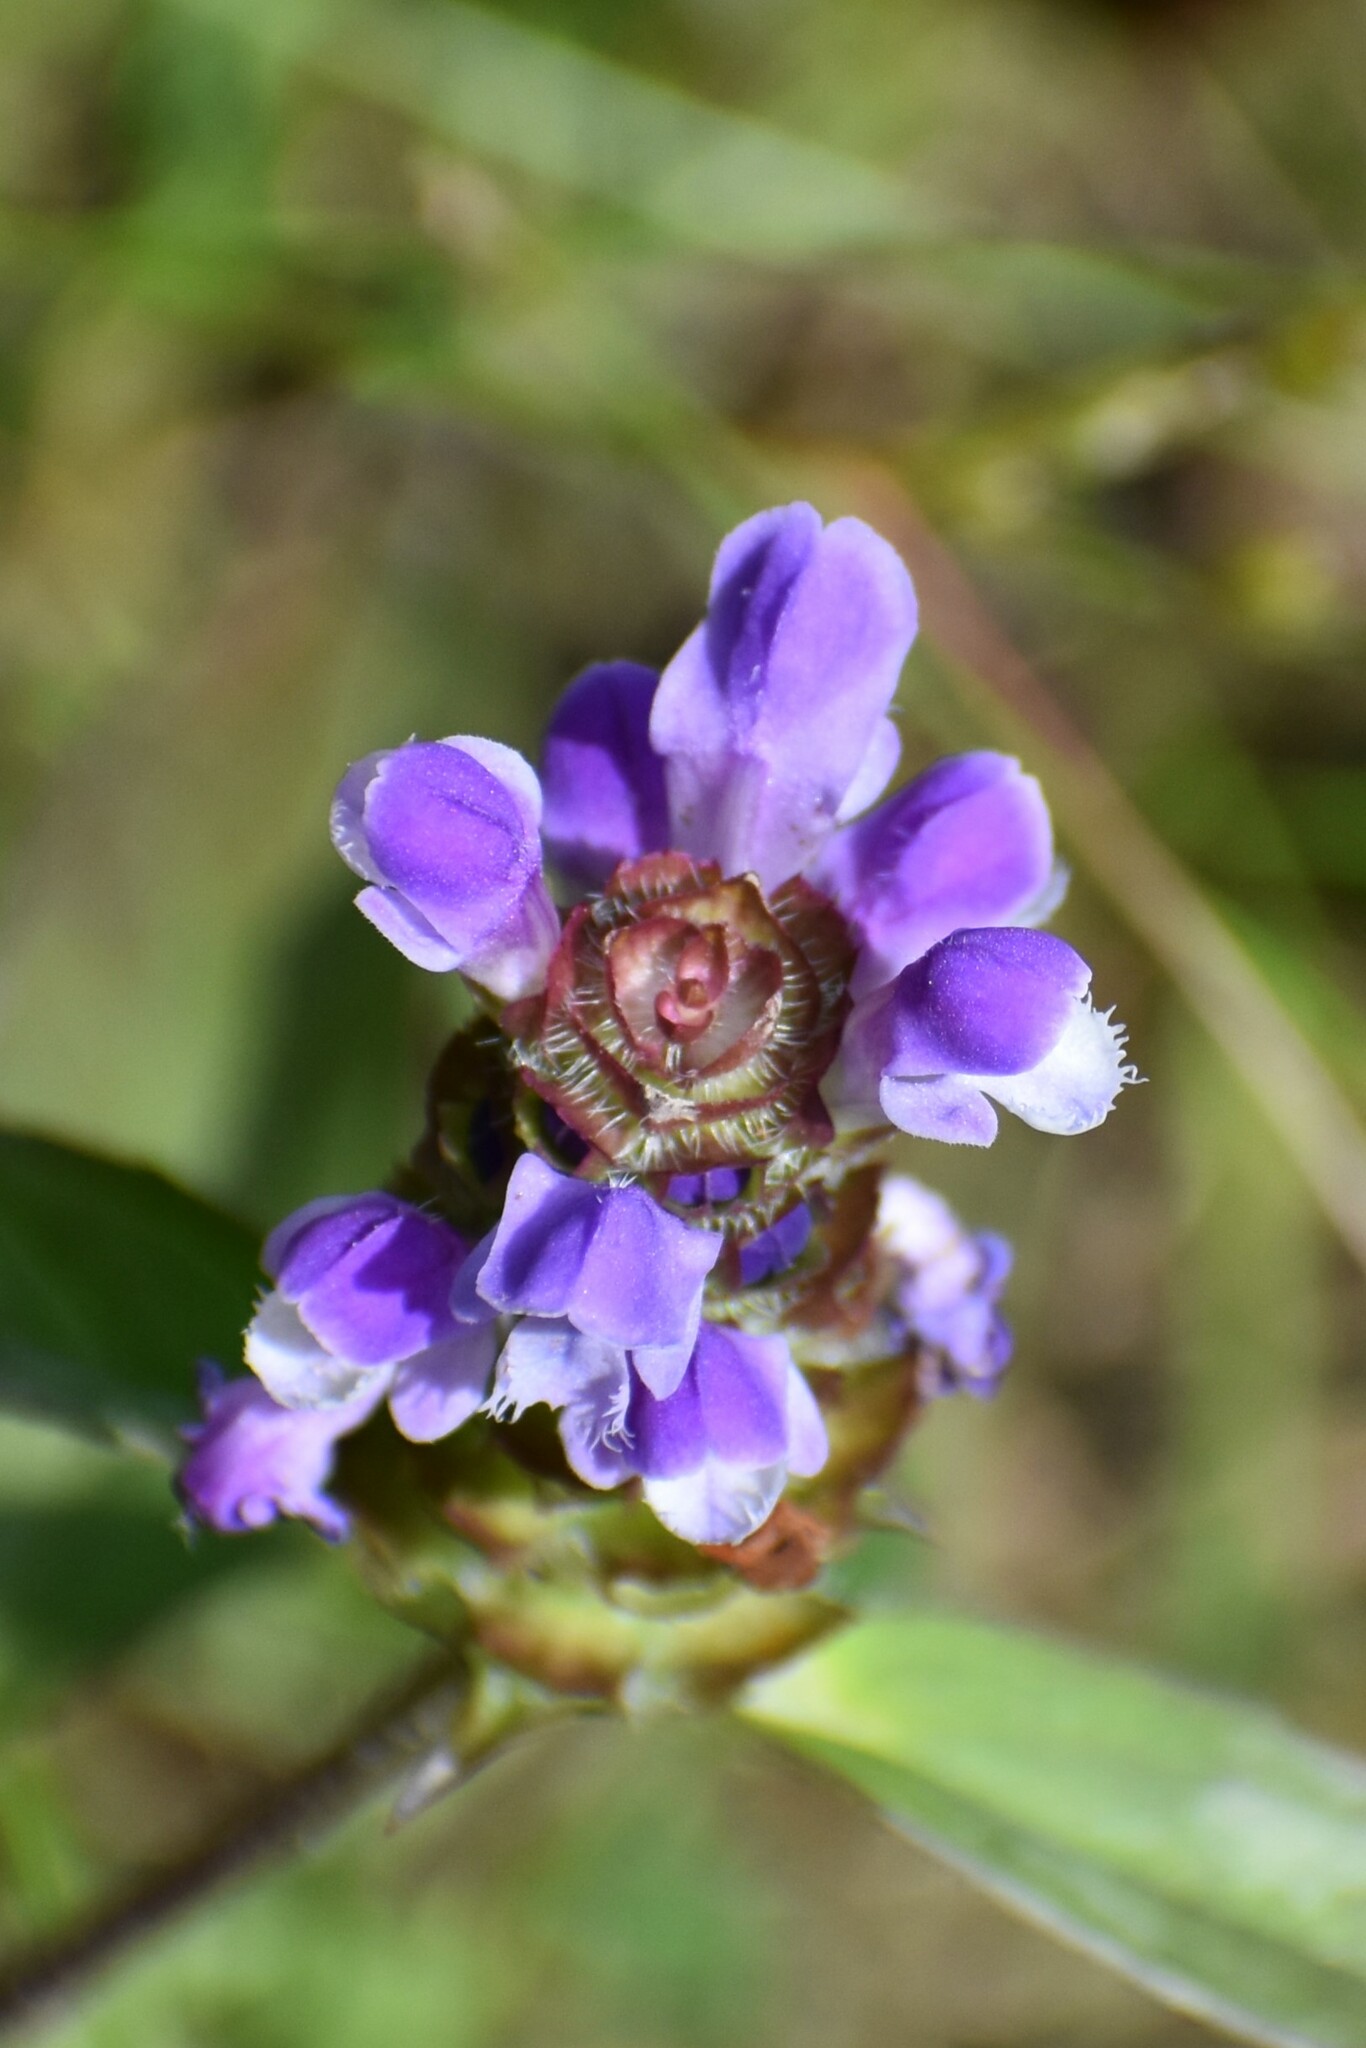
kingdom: Plantae
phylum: Tracheophyta
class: Magnoliopsida
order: Lamiales
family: Lamiaceae
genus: Prunella
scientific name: Prunella vulgaris
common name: Heal-all
